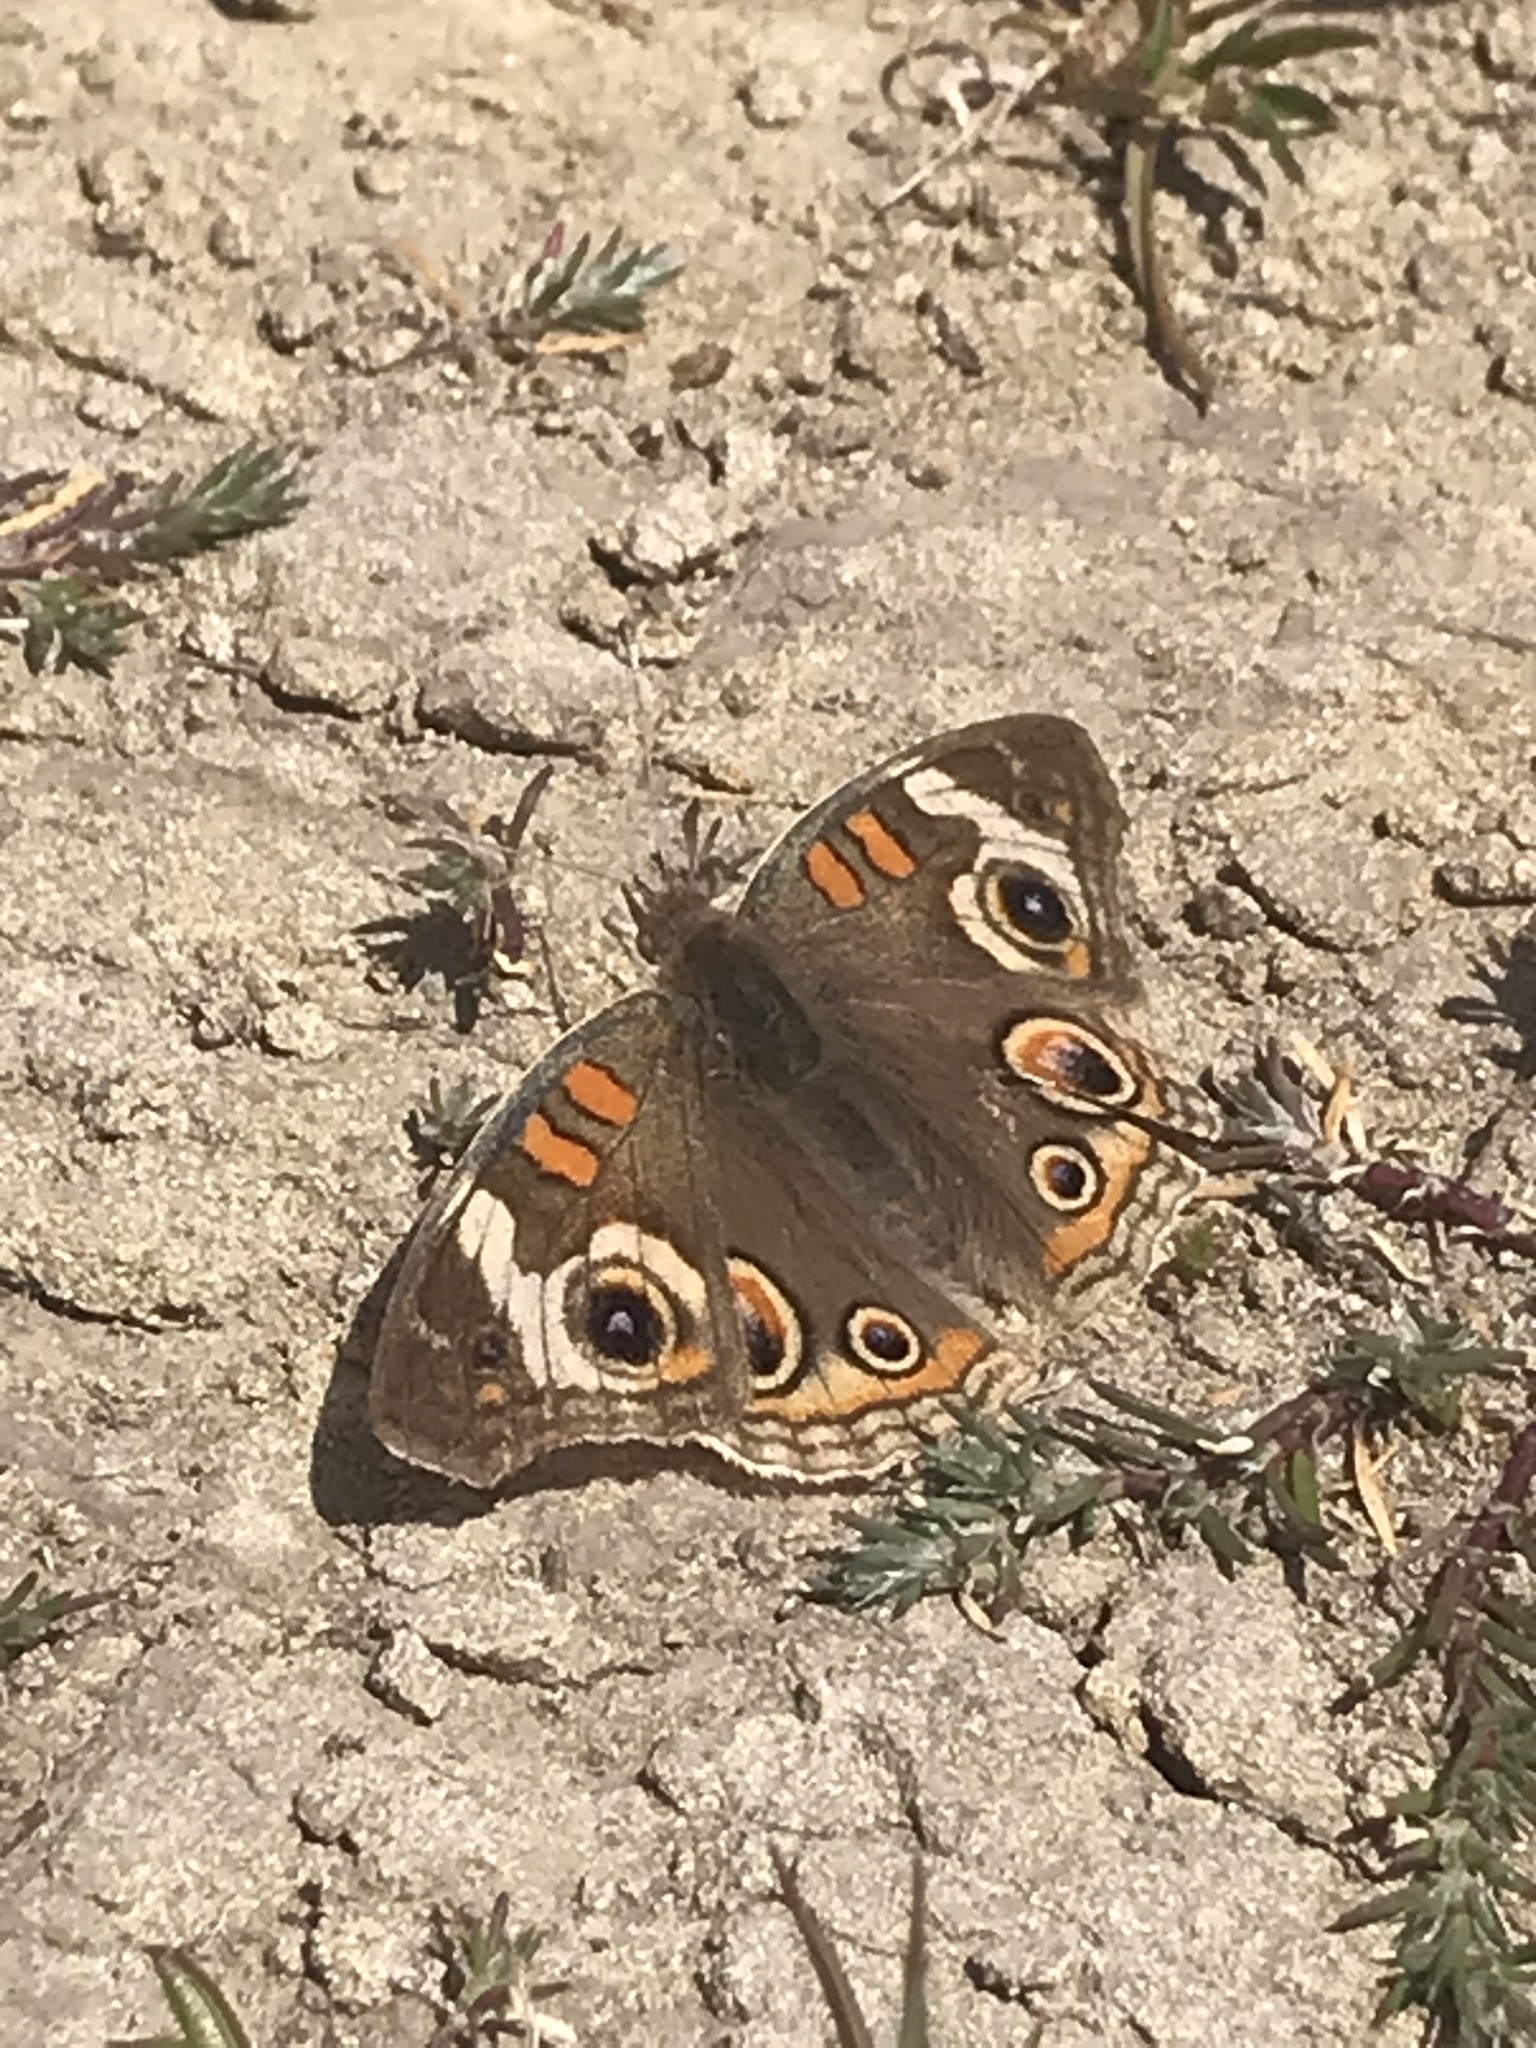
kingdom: Animalia
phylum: Arthropoda
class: Insecta
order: Lepidoptera
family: Nymphalidae
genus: Junonia
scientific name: Junonia grisea
